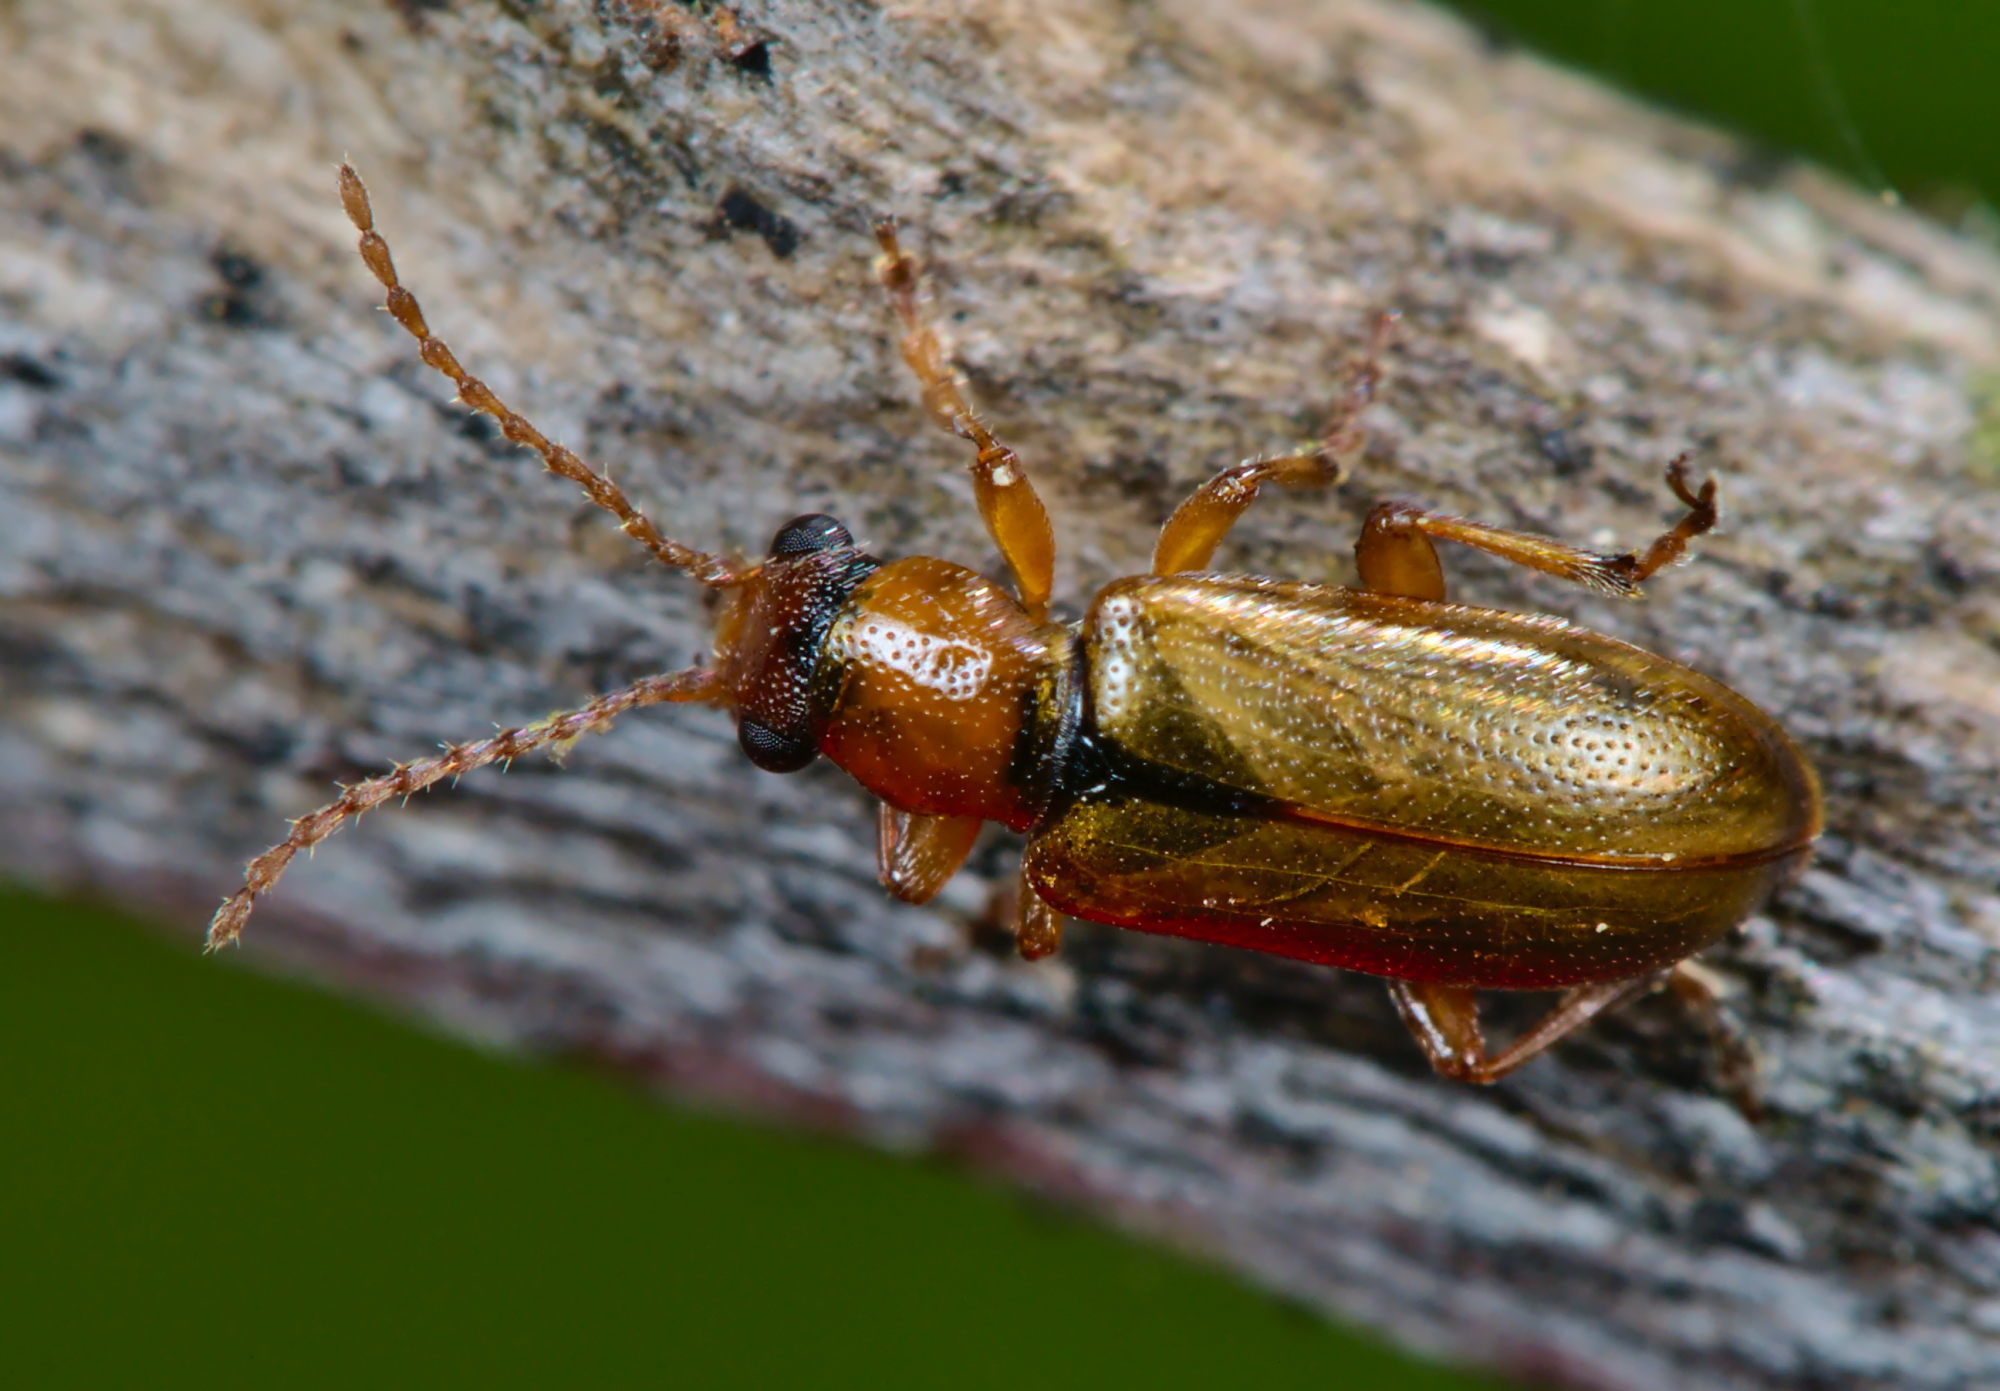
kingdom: Animalia
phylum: Arthropoda
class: Insecta
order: Coleoptera
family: Orsodacnidae
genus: Orsodacne
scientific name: Orsodacne cerasi
